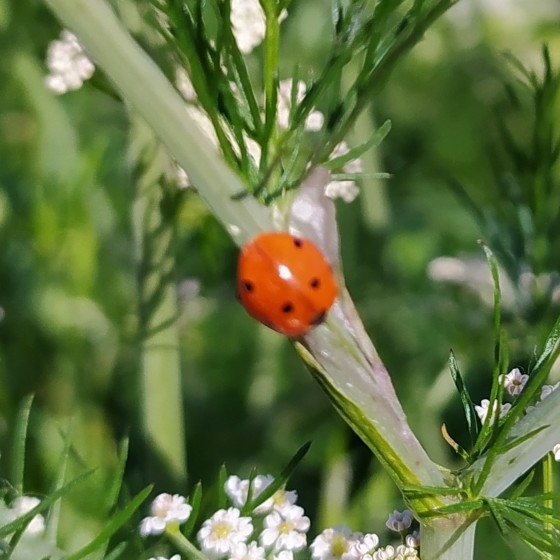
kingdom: Animalia
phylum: Arthropoda
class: Insecta
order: Coleoptera
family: Coccinellidae
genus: Coccinella
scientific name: Coccinella septempunctata
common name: Sevenspotted lady beetle
